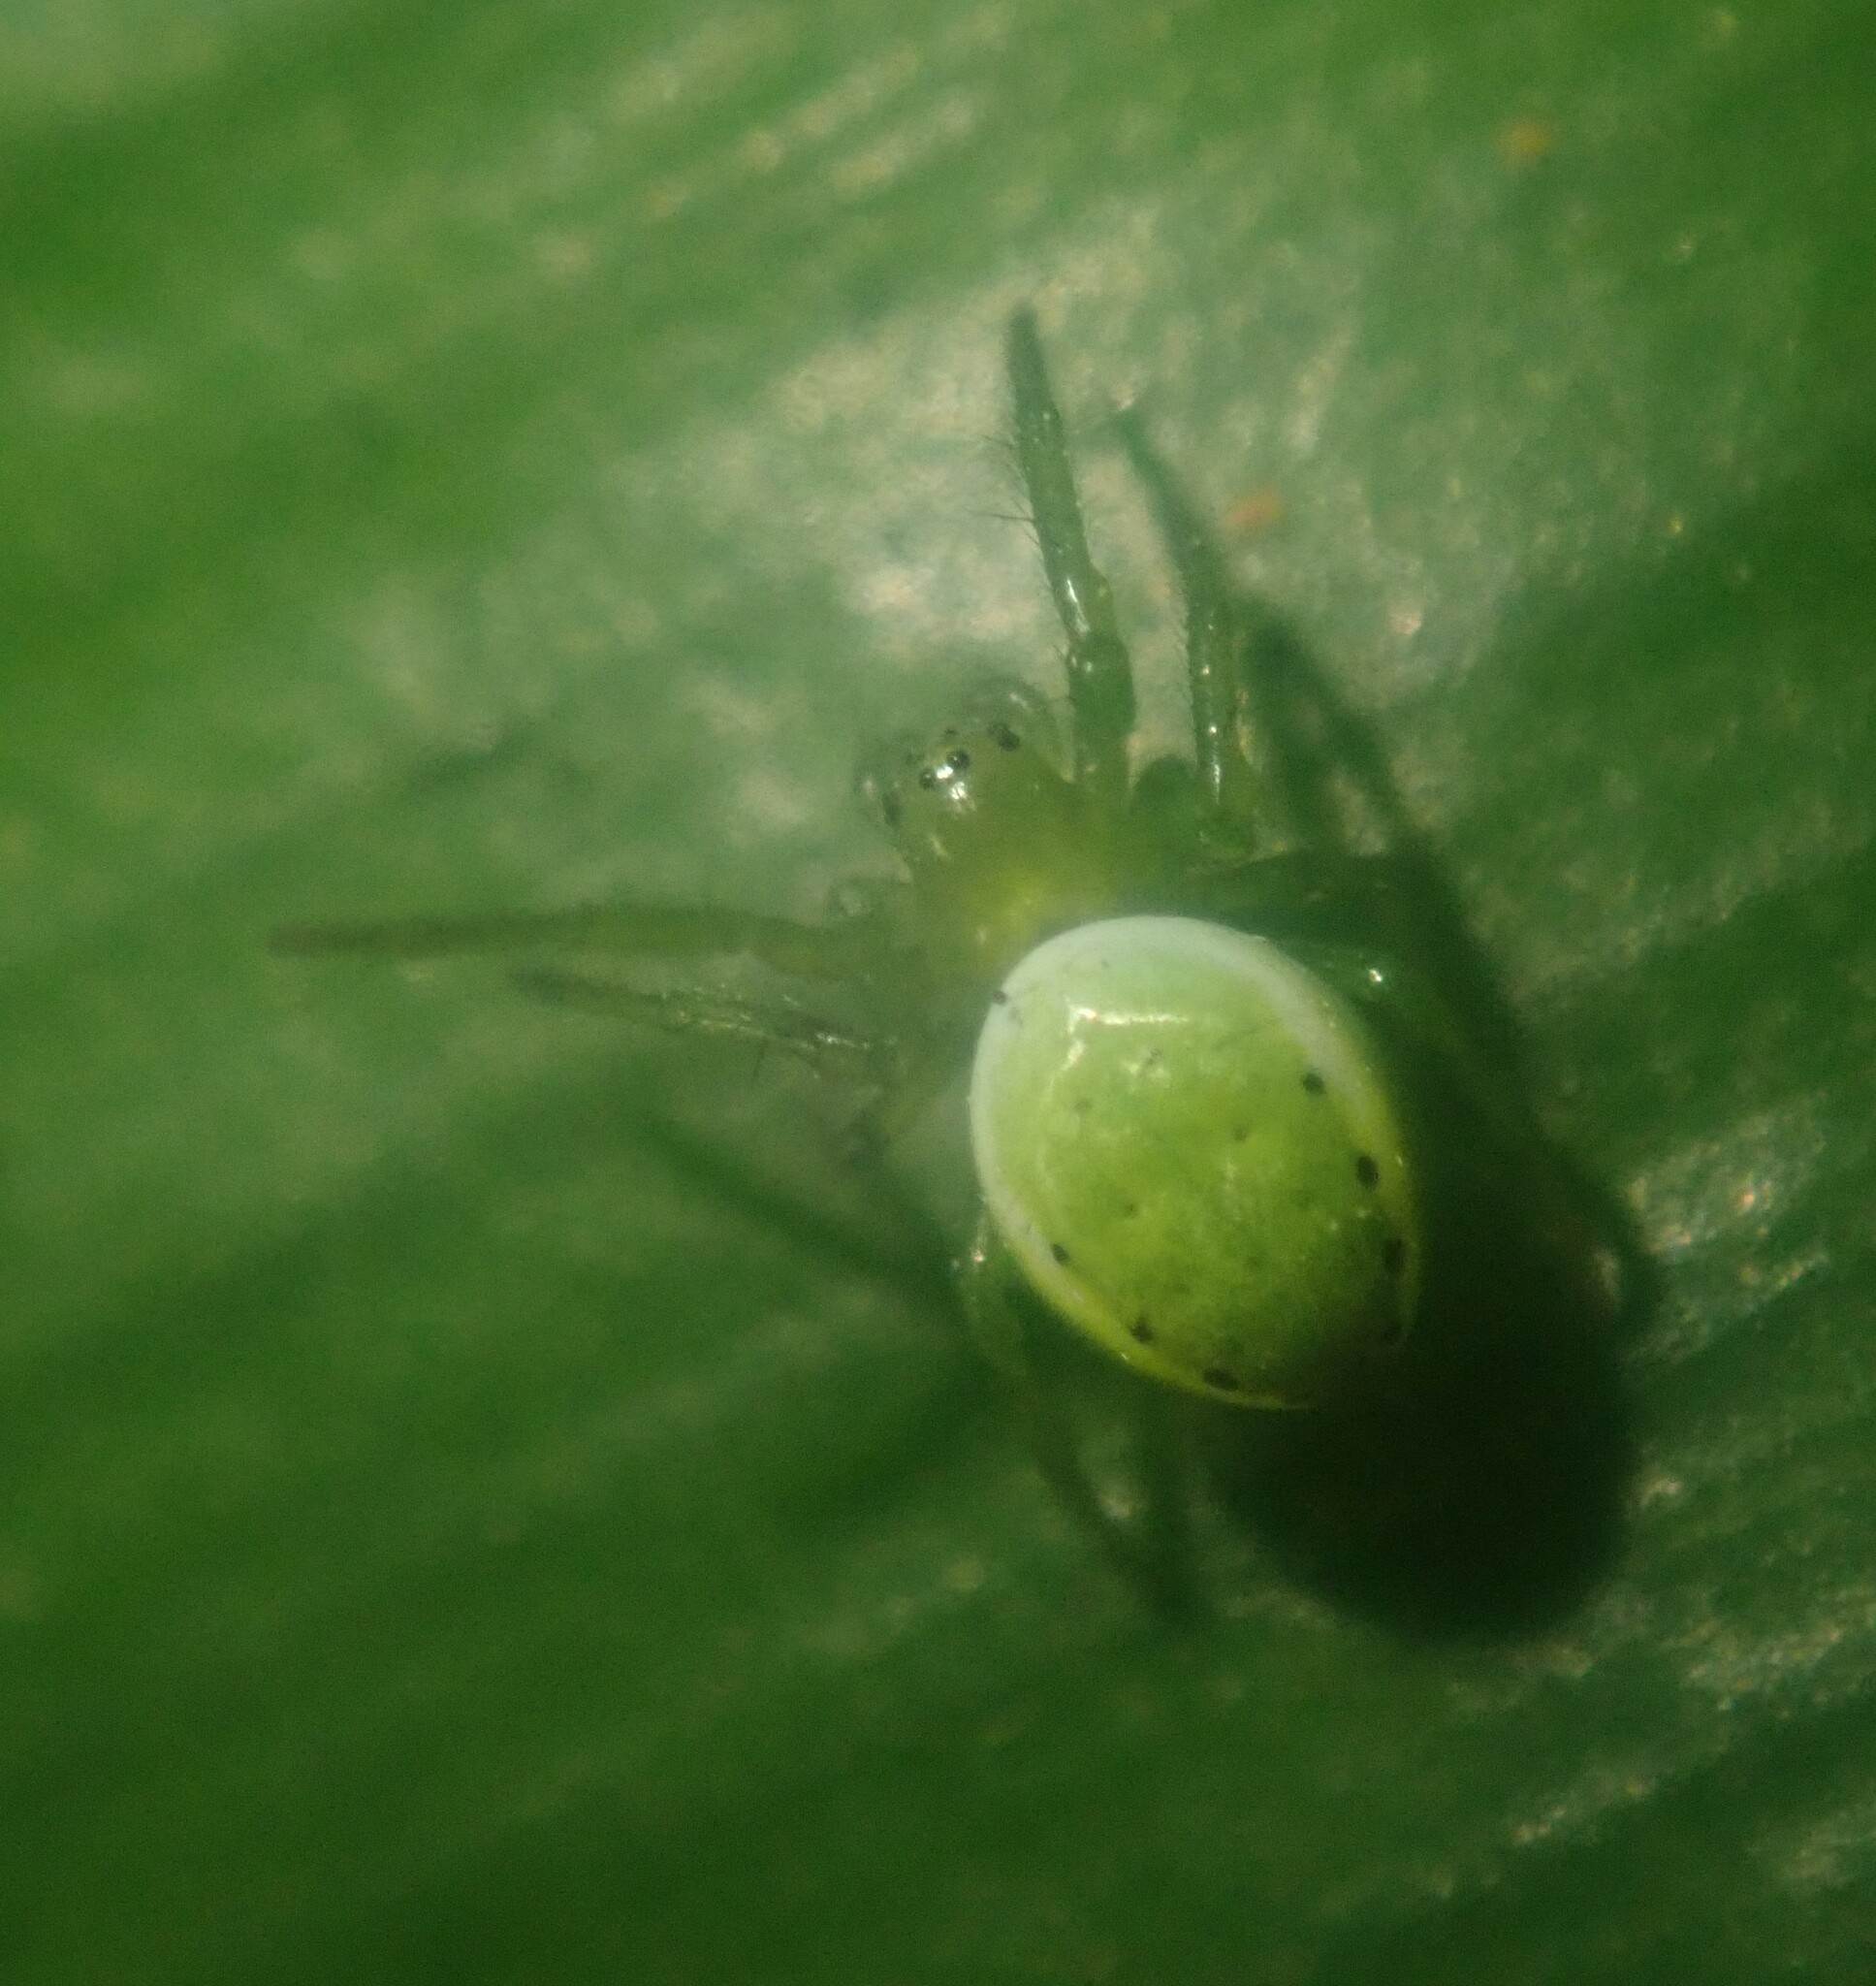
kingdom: Animalia
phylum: Arthropoda
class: Arachnida
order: Araneae
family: Araneidae
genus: Araniella
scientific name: Araniella maderiana
